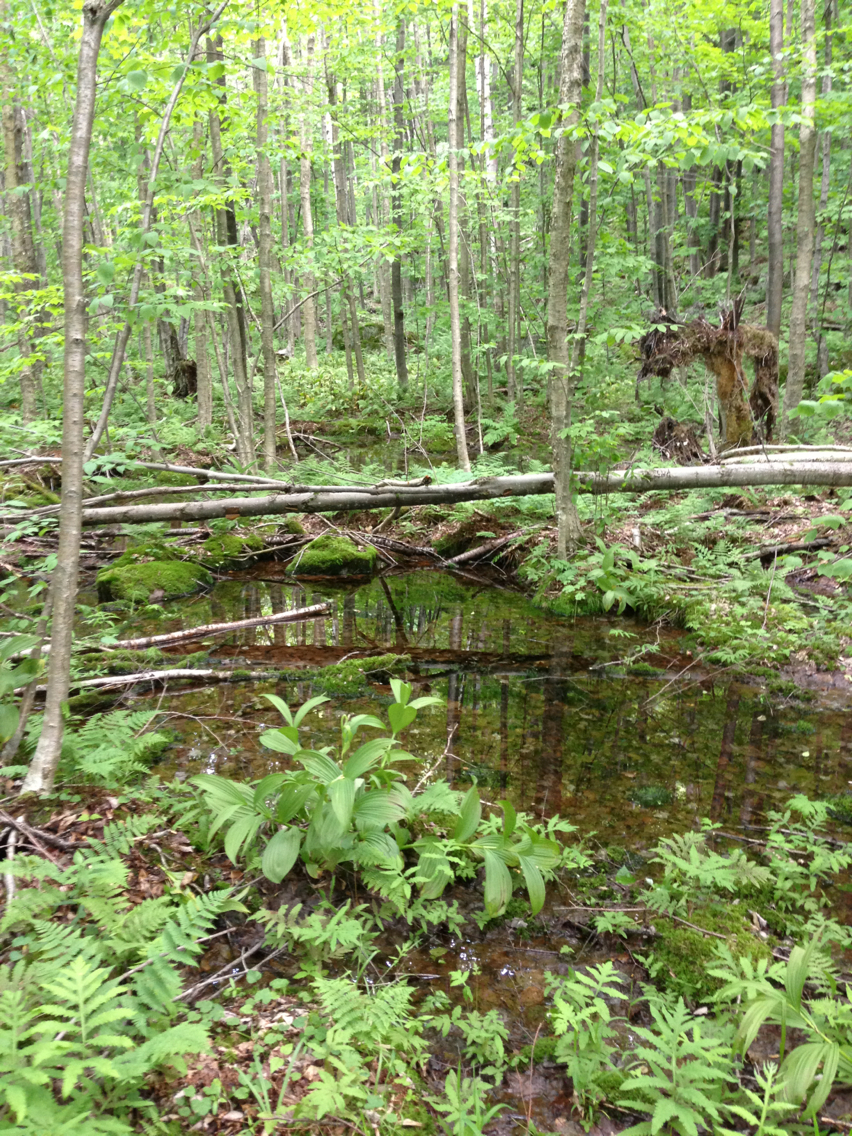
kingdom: Plantae
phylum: Tracheophyta
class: Liliopsida
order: Liliales
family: Melanthiaceae
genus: Veratrum
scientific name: Veratrum viride
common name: American false hellebore
